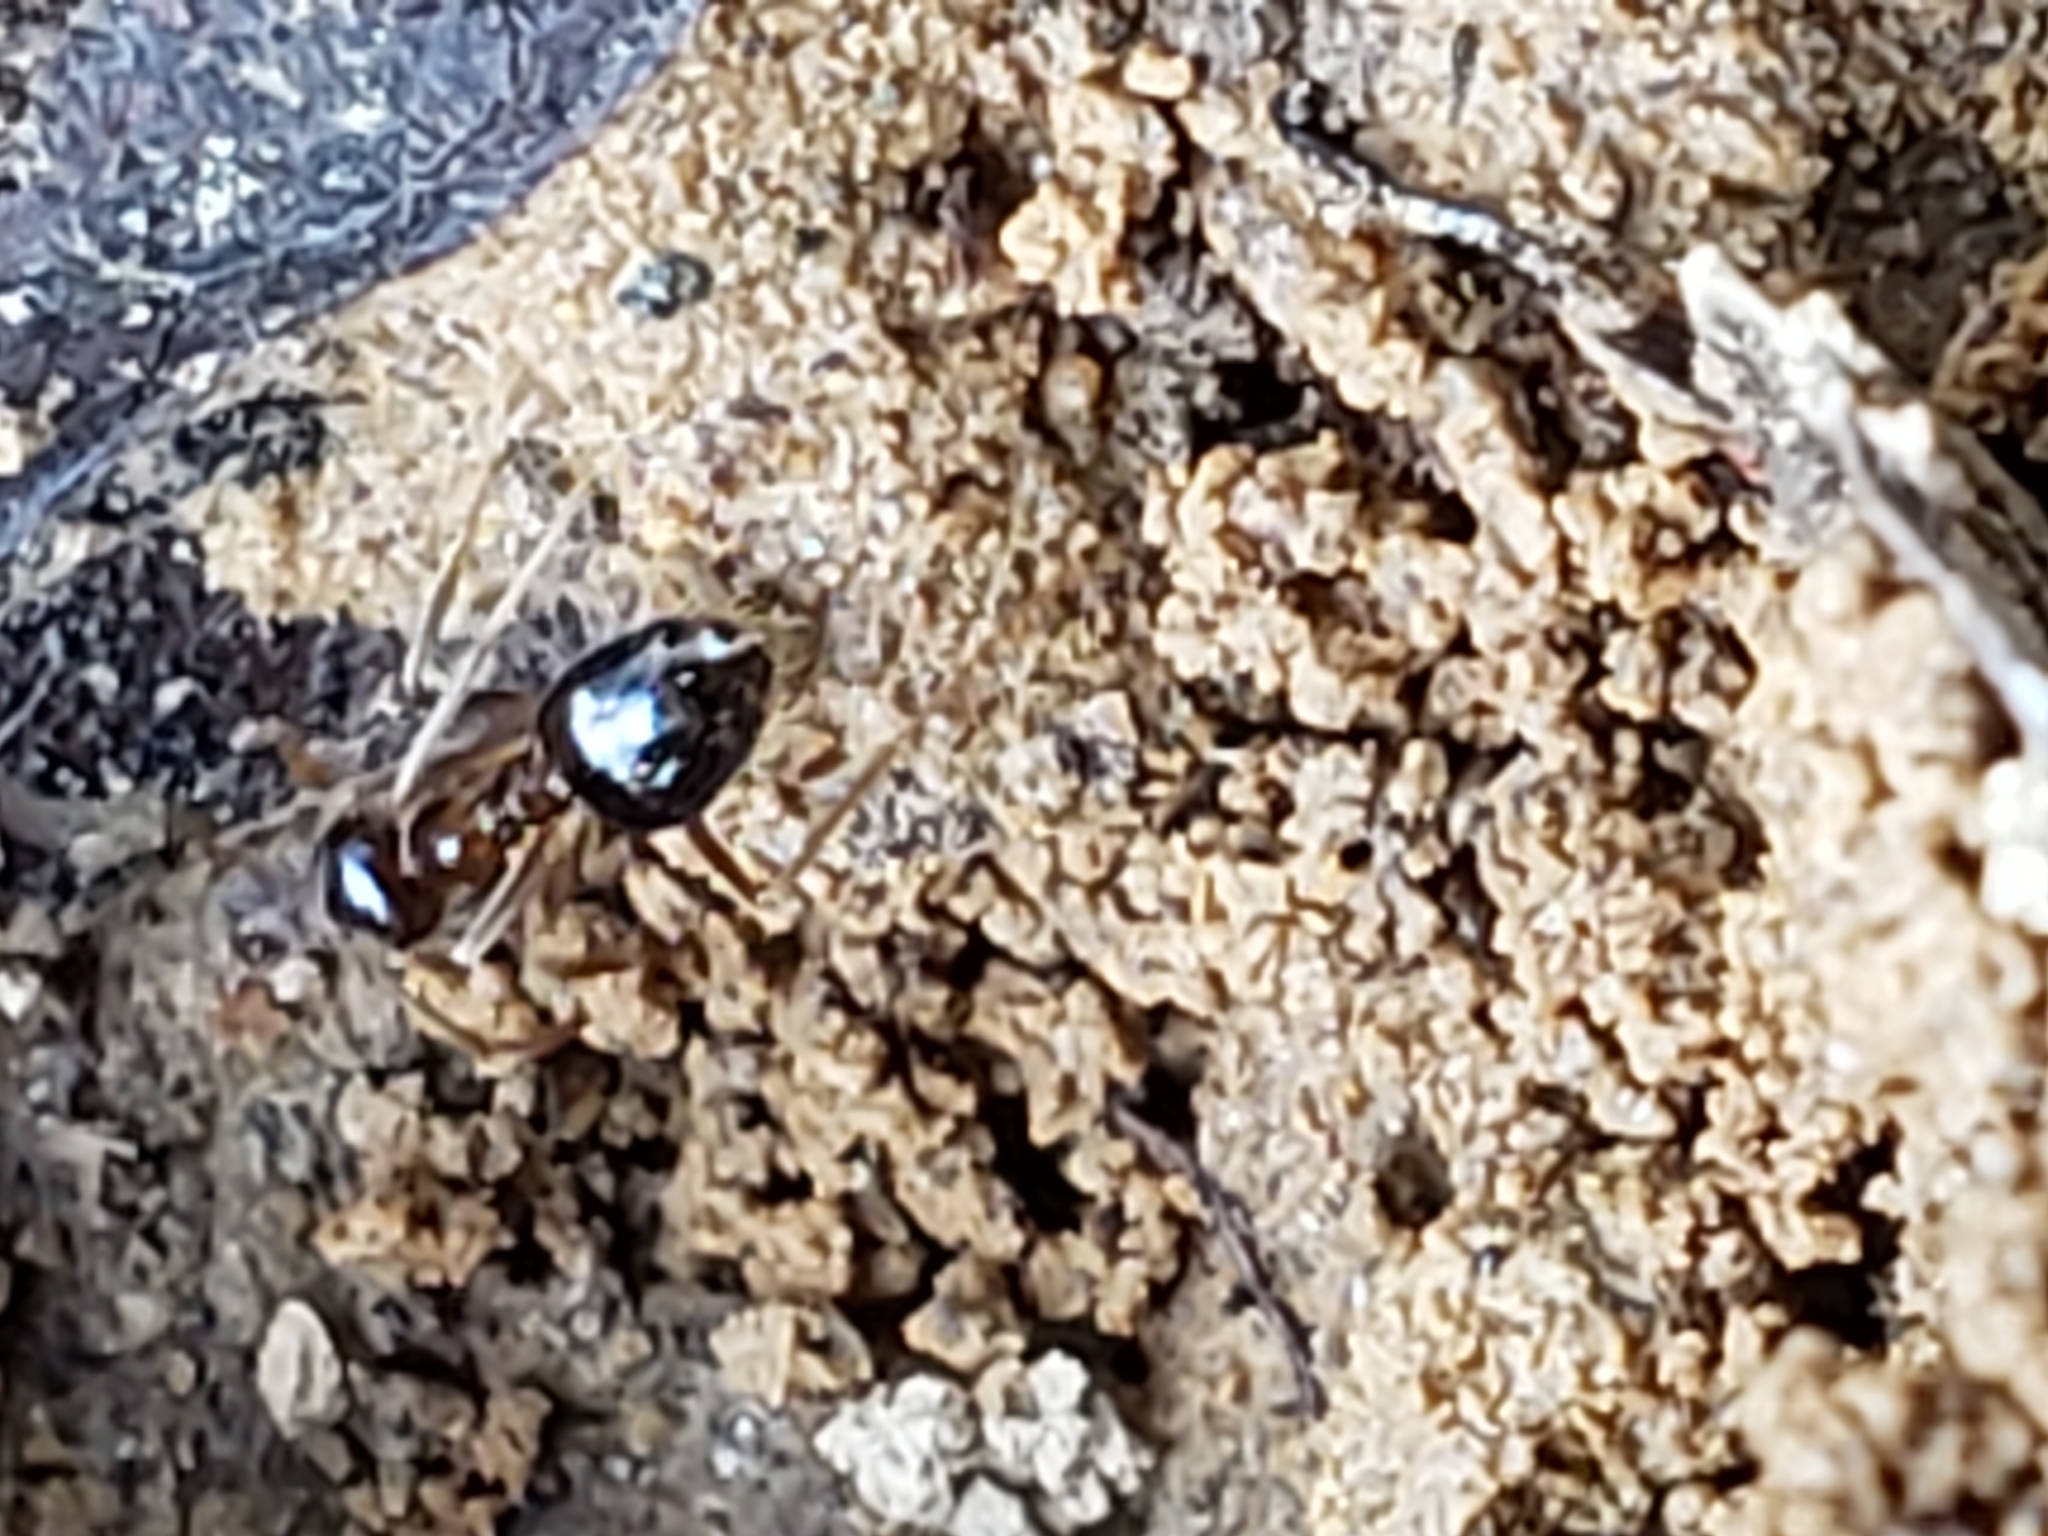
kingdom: Animalia
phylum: Arthropoda
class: Insecta
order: Hymenoptera
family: Formicidae
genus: Prenolepis
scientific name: Prenolepis imparis
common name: Small honey ant
